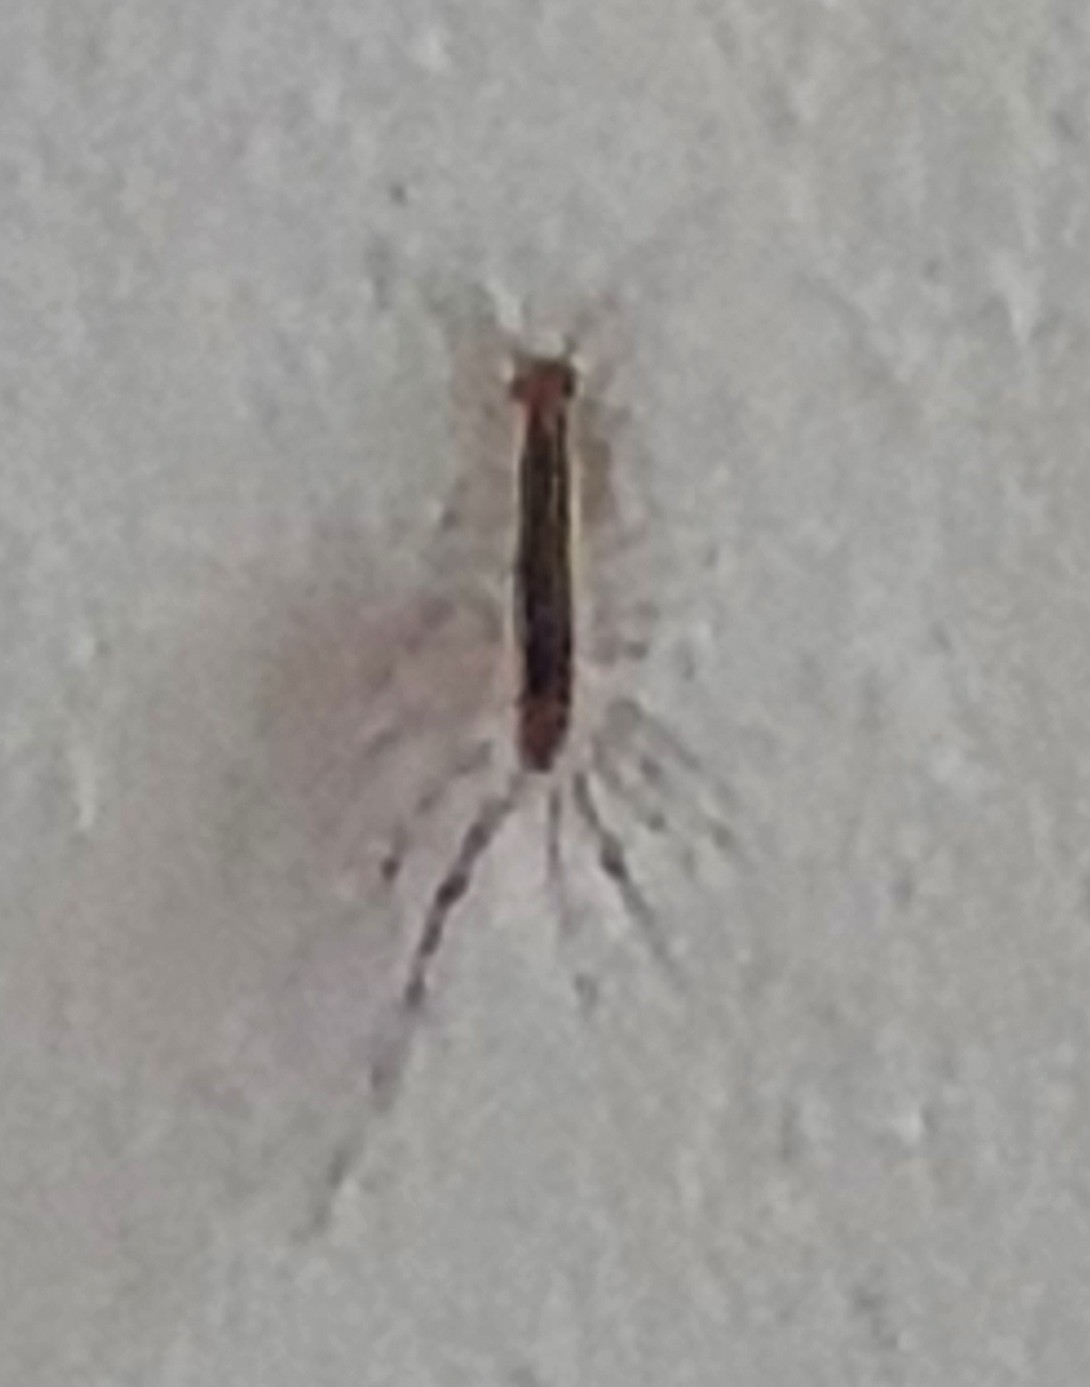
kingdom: Animalia
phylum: Arthropoda
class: Chilopoda
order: Scutigeromorpha
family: Scutigeridae
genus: Scutigera
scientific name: Scutigera coleoptrata
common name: House centipede
